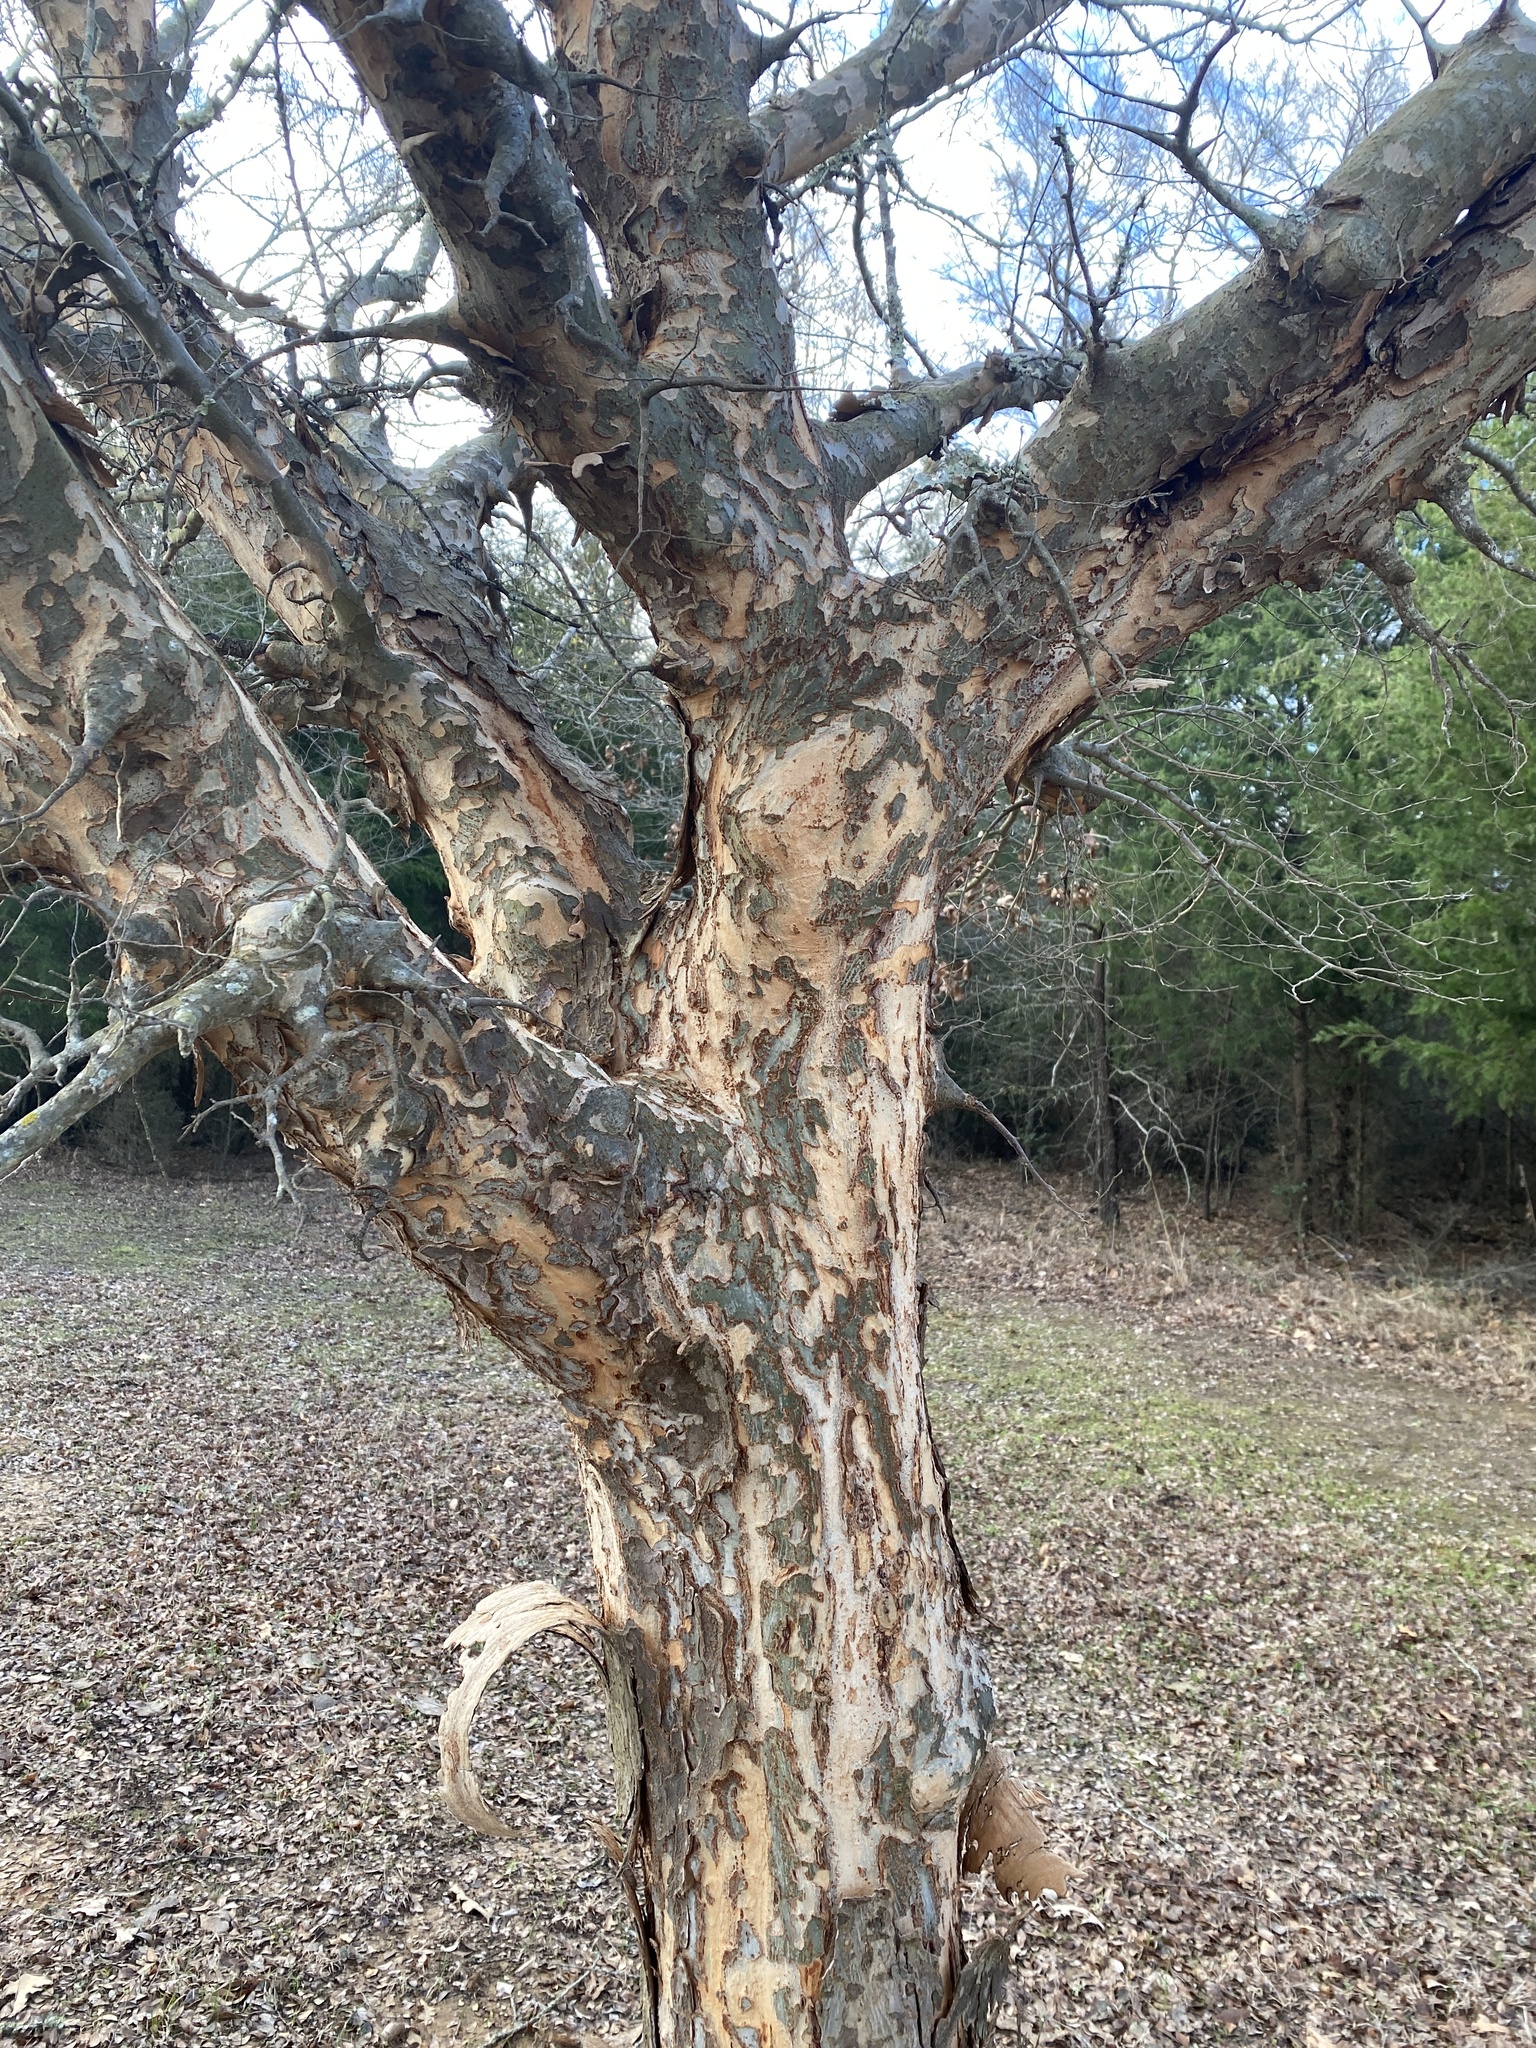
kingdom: Plantae
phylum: Tracheophyta
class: Magnoliopsida
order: Rosales
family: Ulmaceae
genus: Ulmus
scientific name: Ulmus parvifolia
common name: Chinese elm
